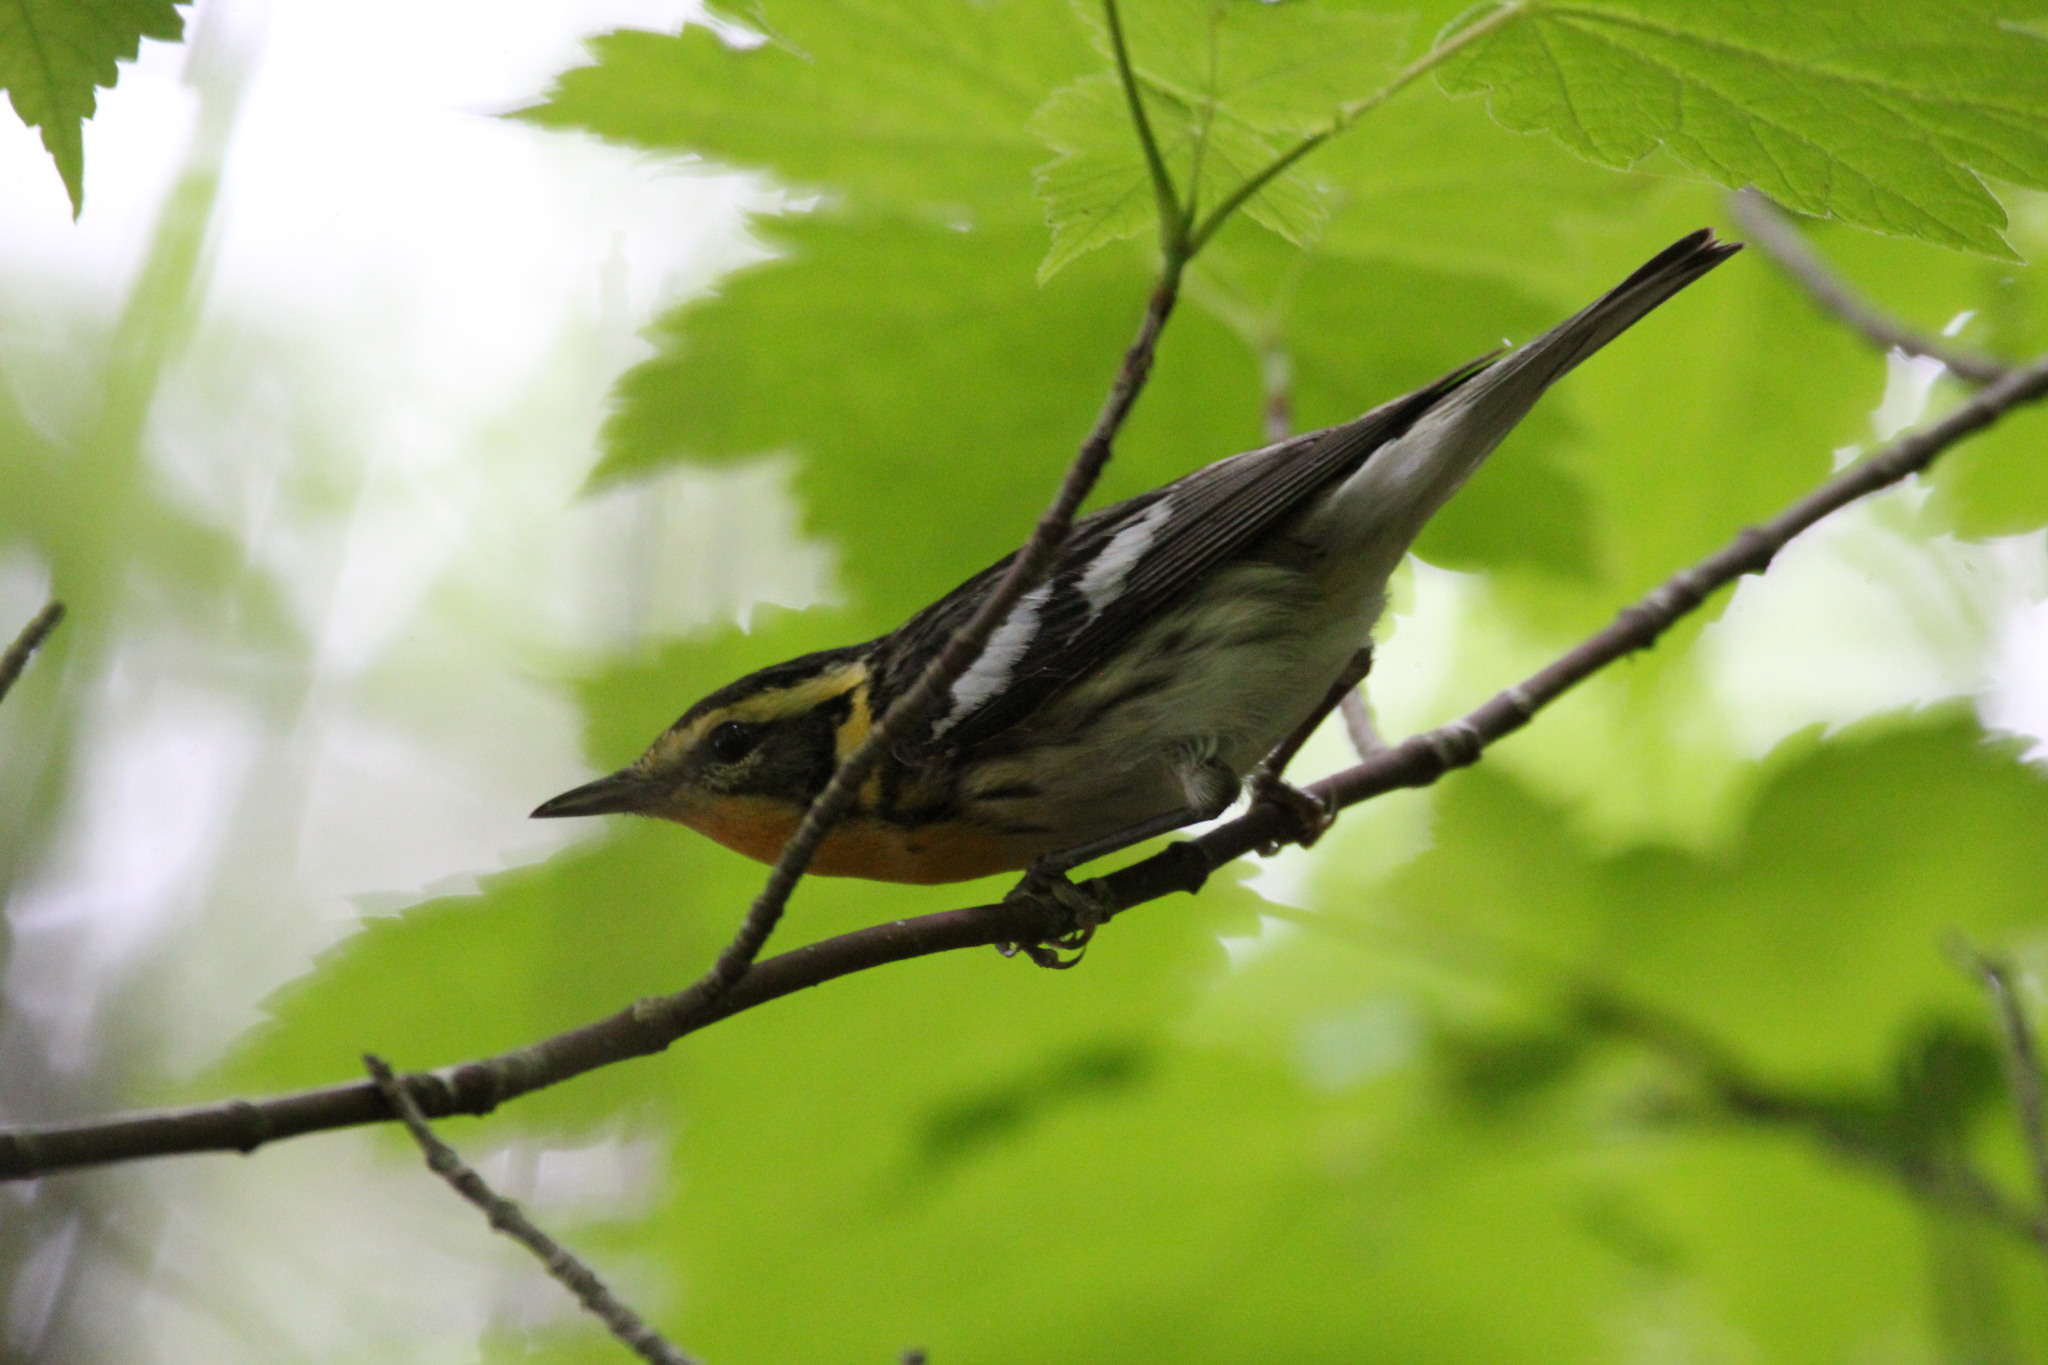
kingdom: Animalia
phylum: Chordata
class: Aves
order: Passeriformes
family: Parulidae
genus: Setophaga
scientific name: Setophaga fusca
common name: Blackburnian warbler
